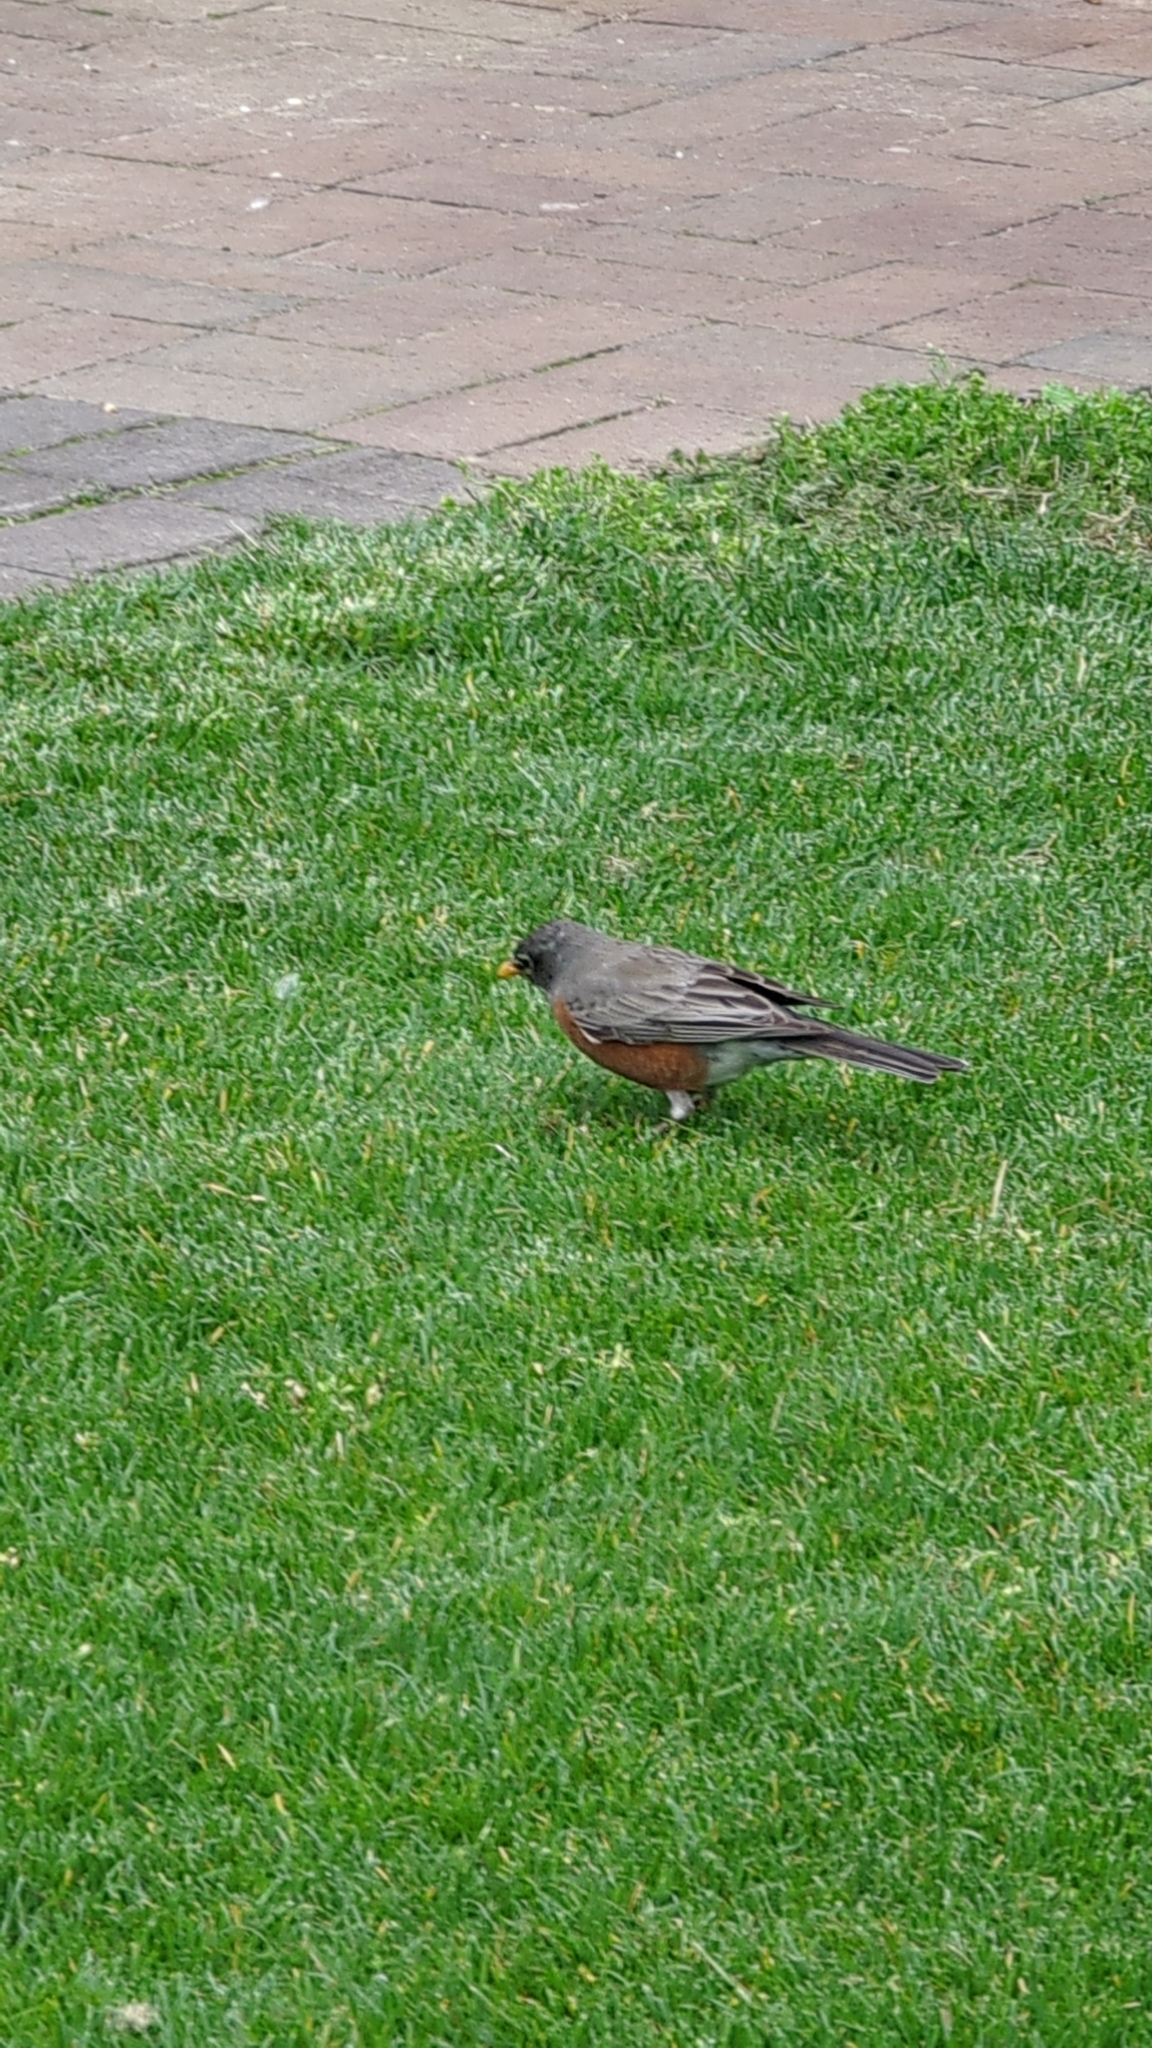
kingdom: Animalia
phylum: Chordata
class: Aves
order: Passeriformes
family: Turdidae
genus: Turdus
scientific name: Turdus migratorius
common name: American robin
